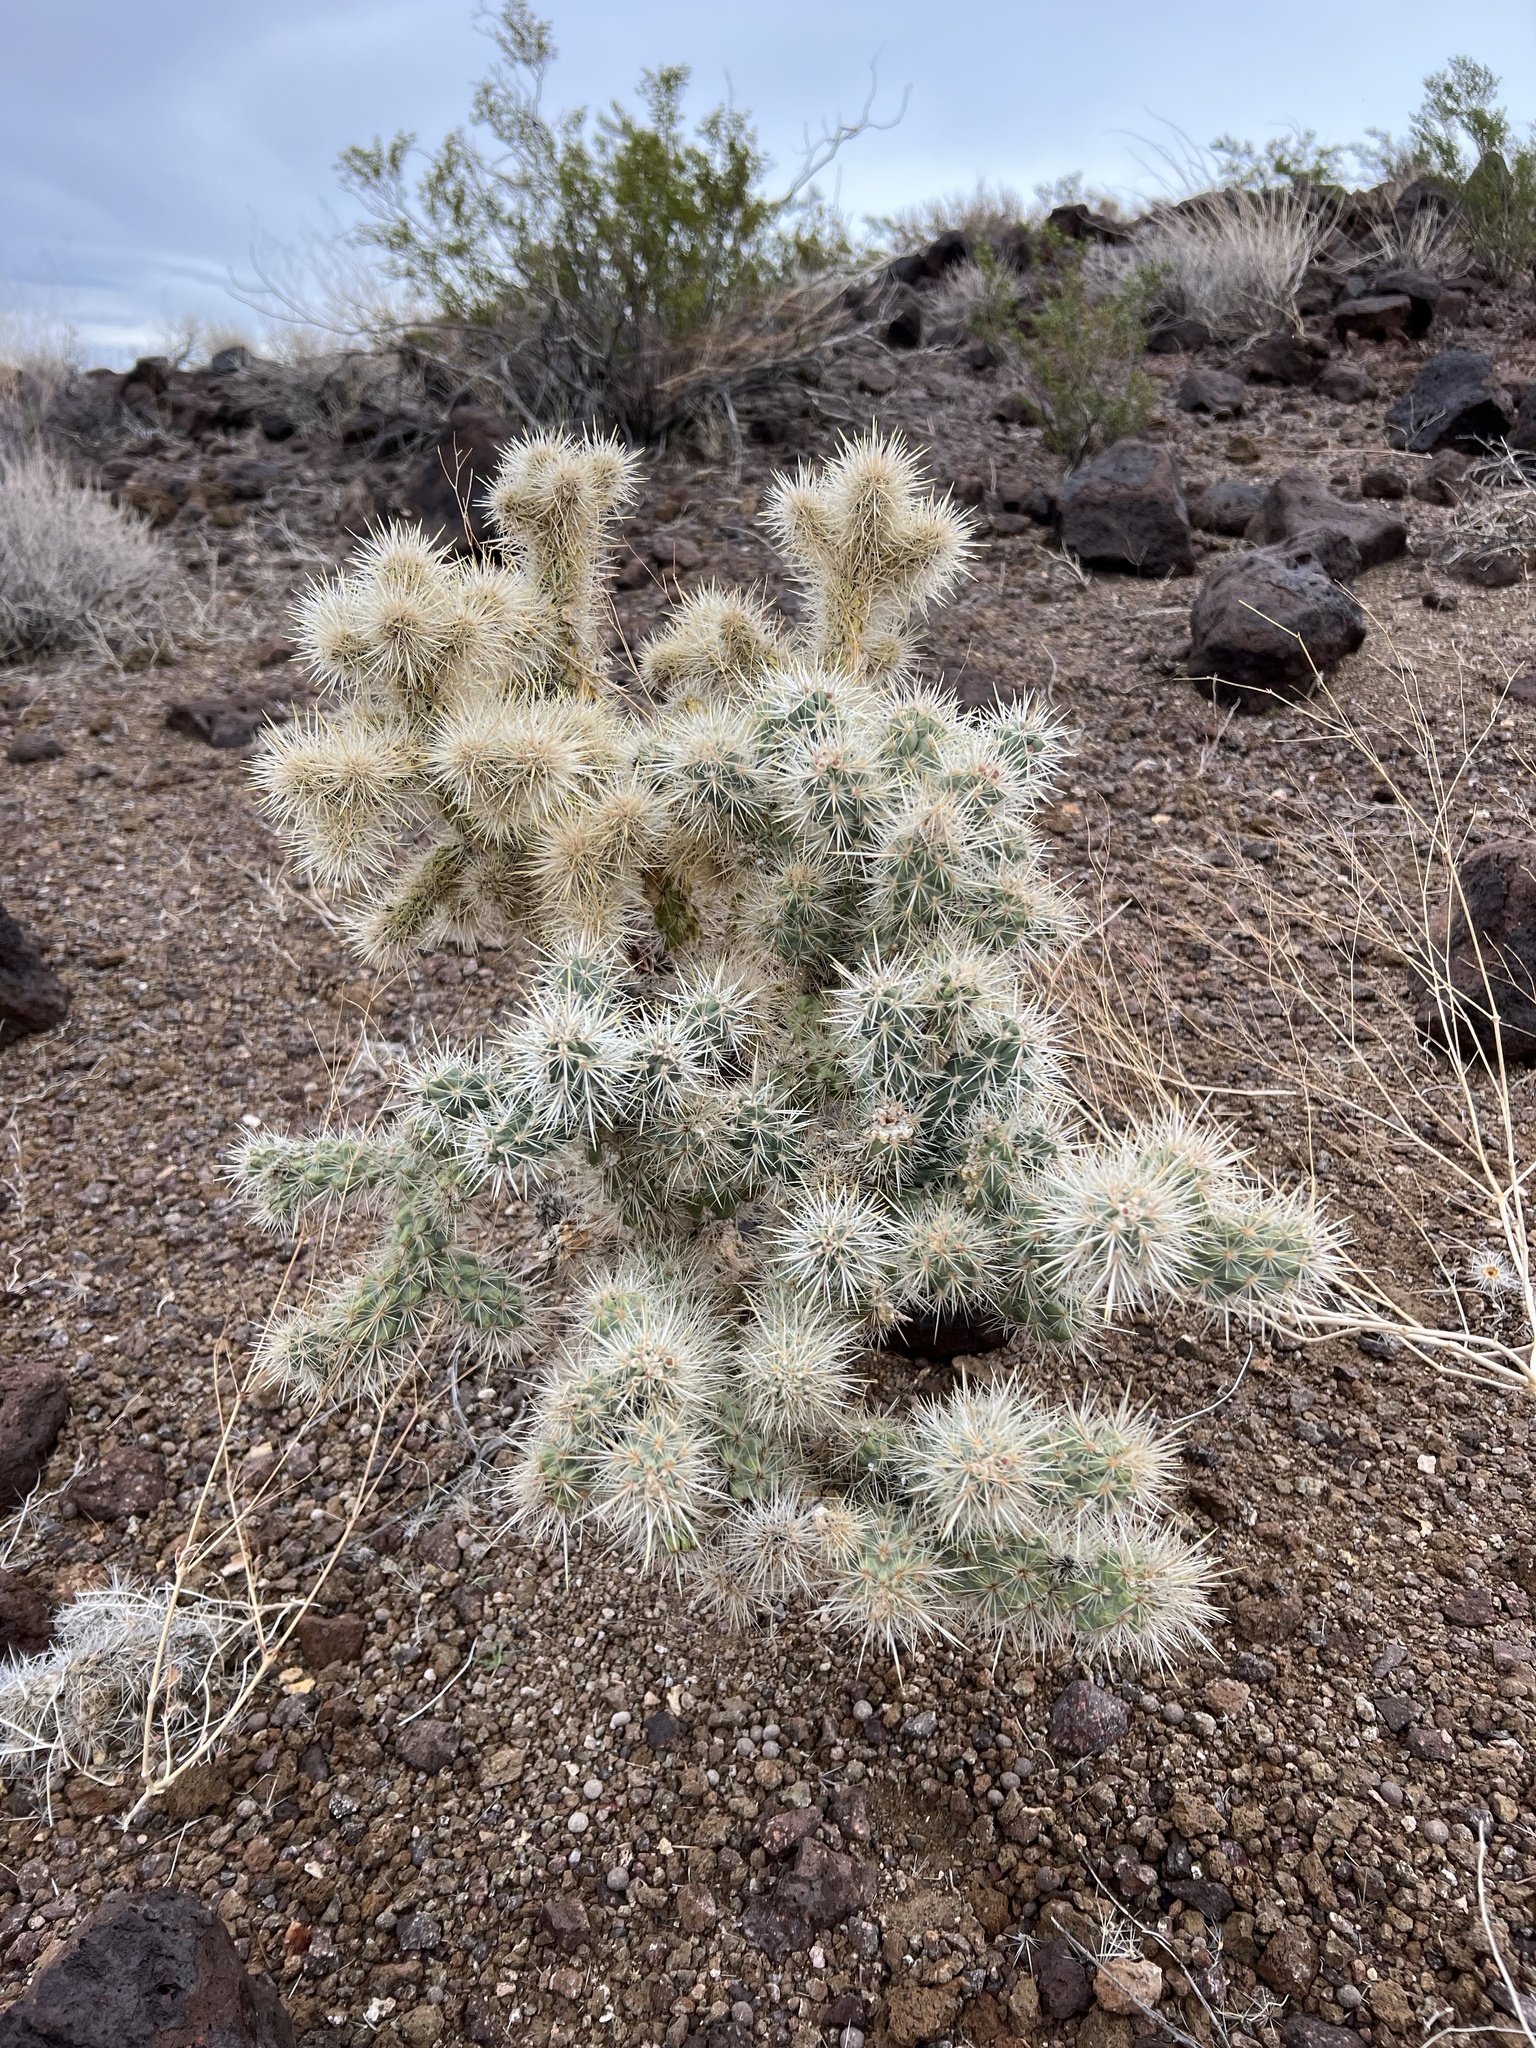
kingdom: Plantae
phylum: Tracheophyta
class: Magnoliopsida
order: Caryophyllales
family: Cactaceae
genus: Cylindropuntia
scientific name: Cylindropuntia echinocarpa
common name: Ground cholla
